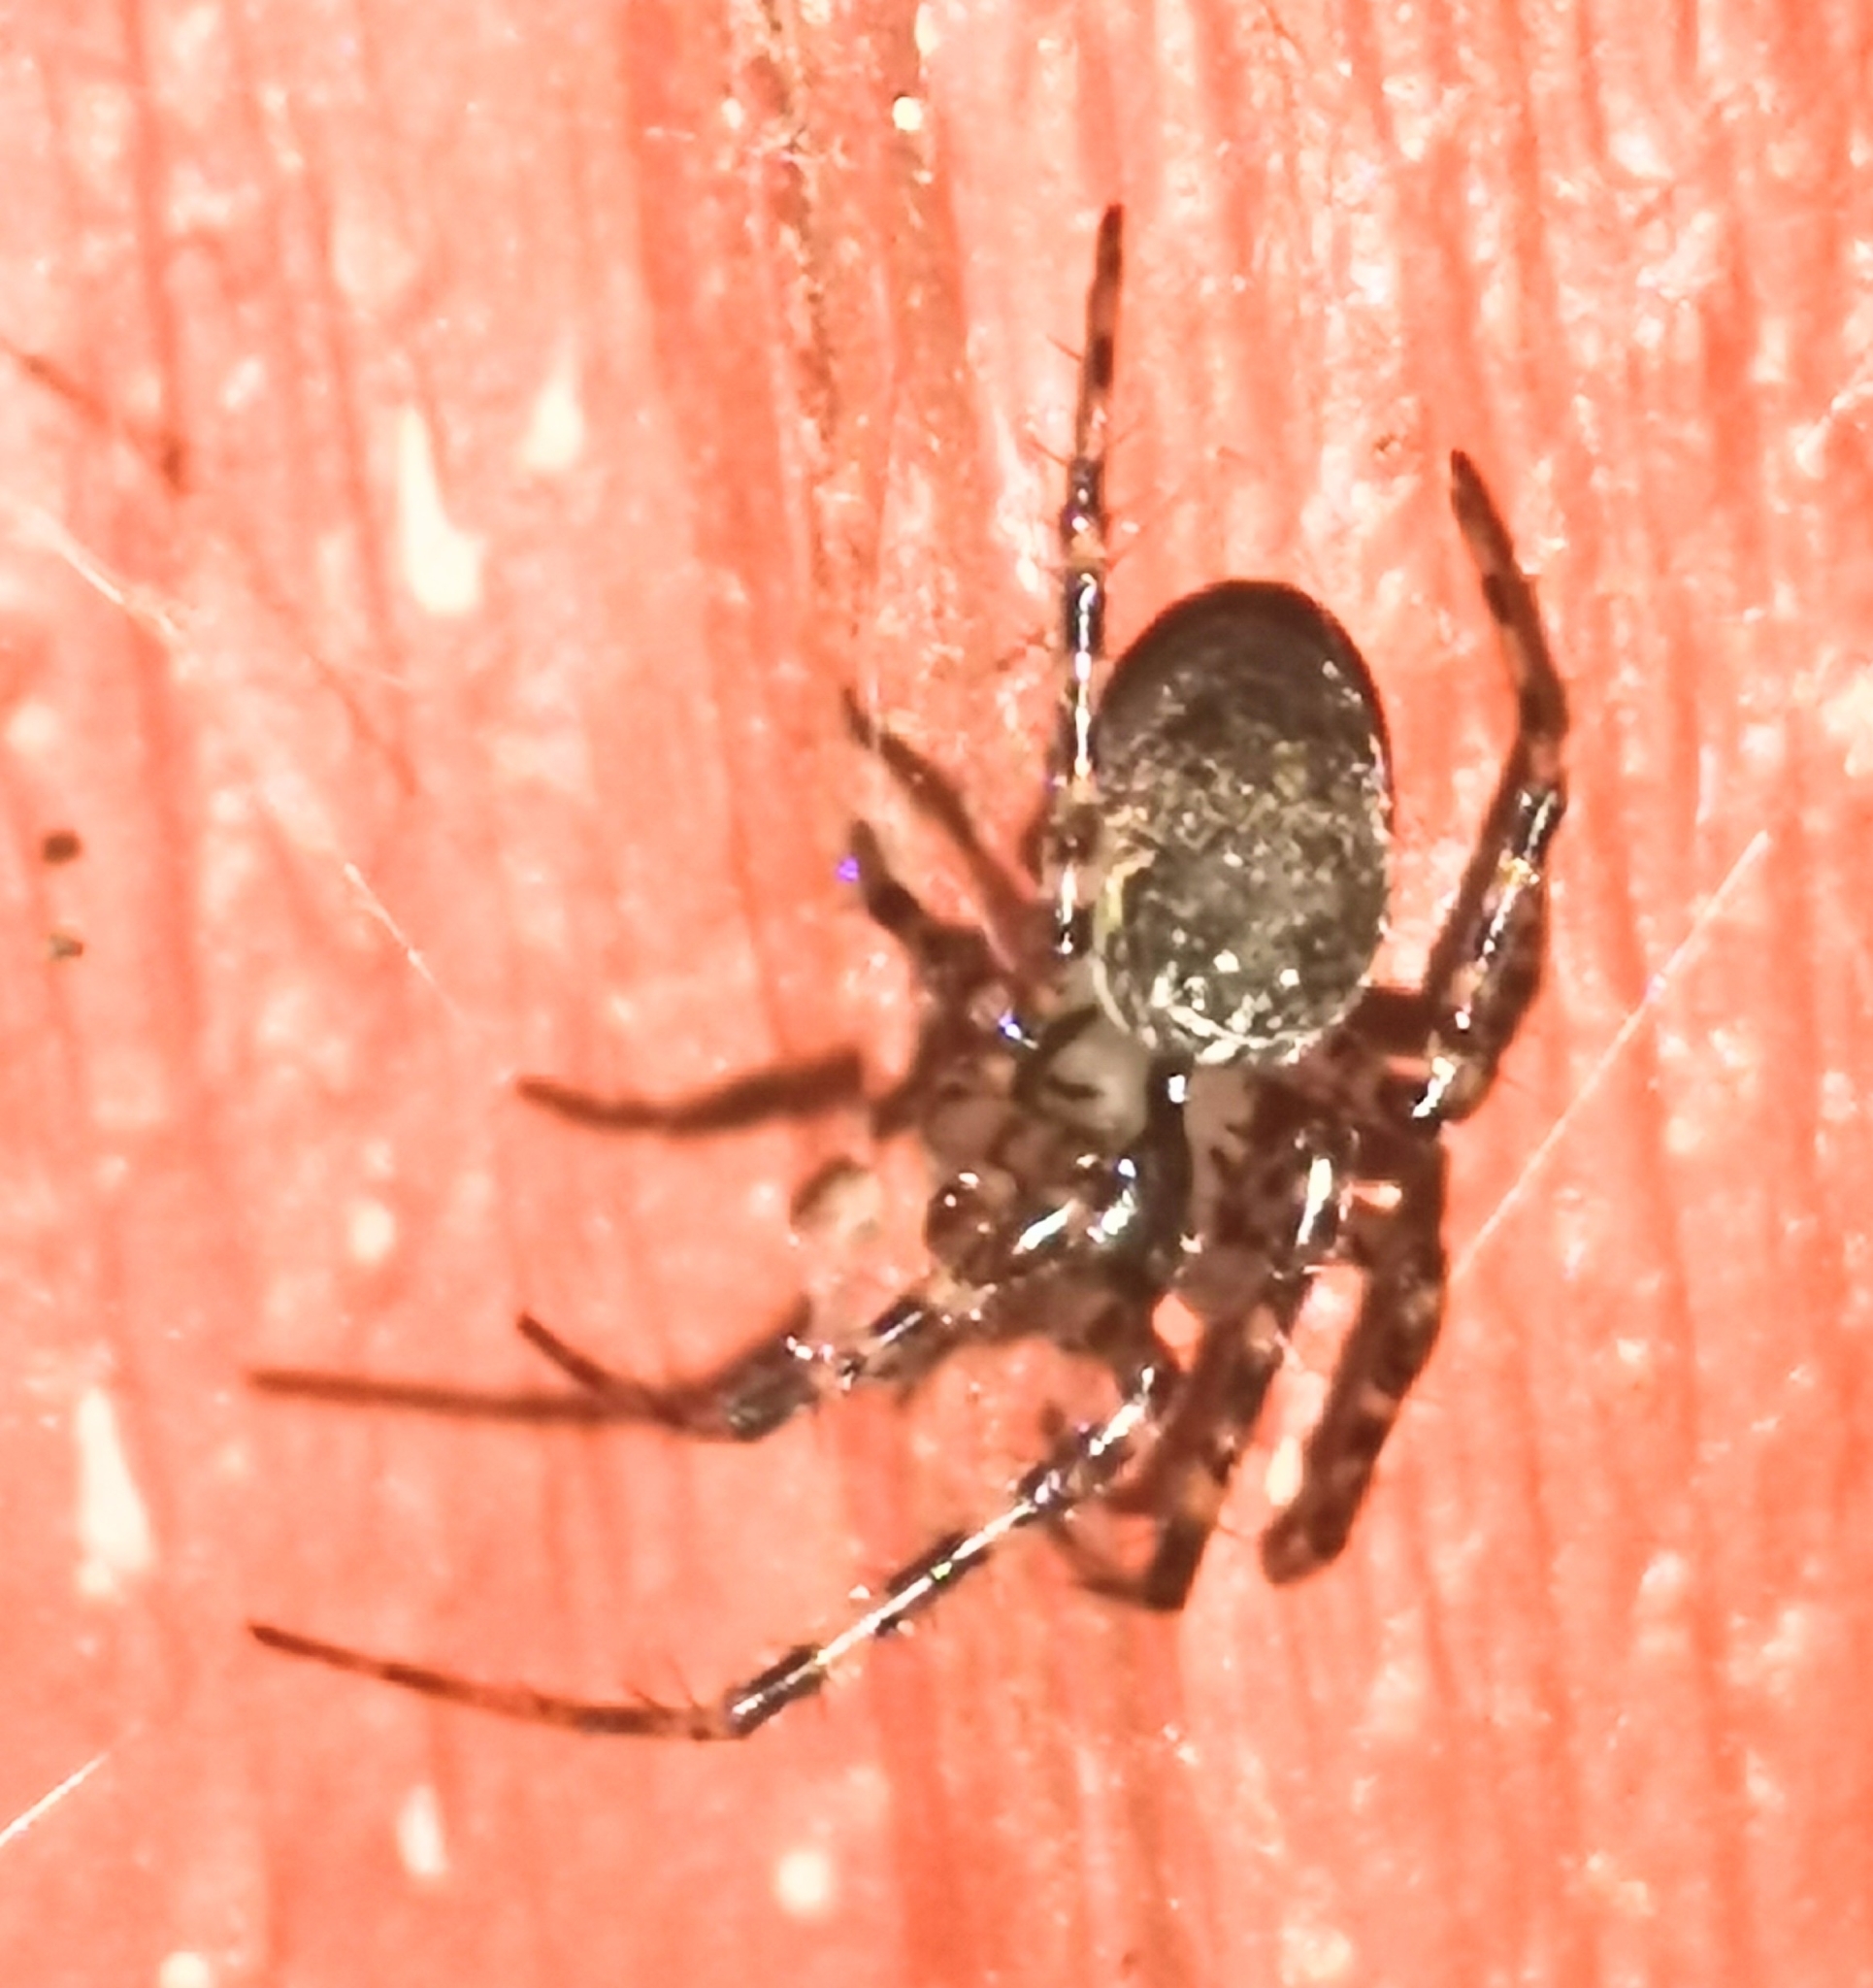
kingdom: Animalia
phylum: Arthropoda
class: Arachnida
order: Araneae
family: Tetragnathidae
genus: Metellina
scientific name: Metellina merianae
